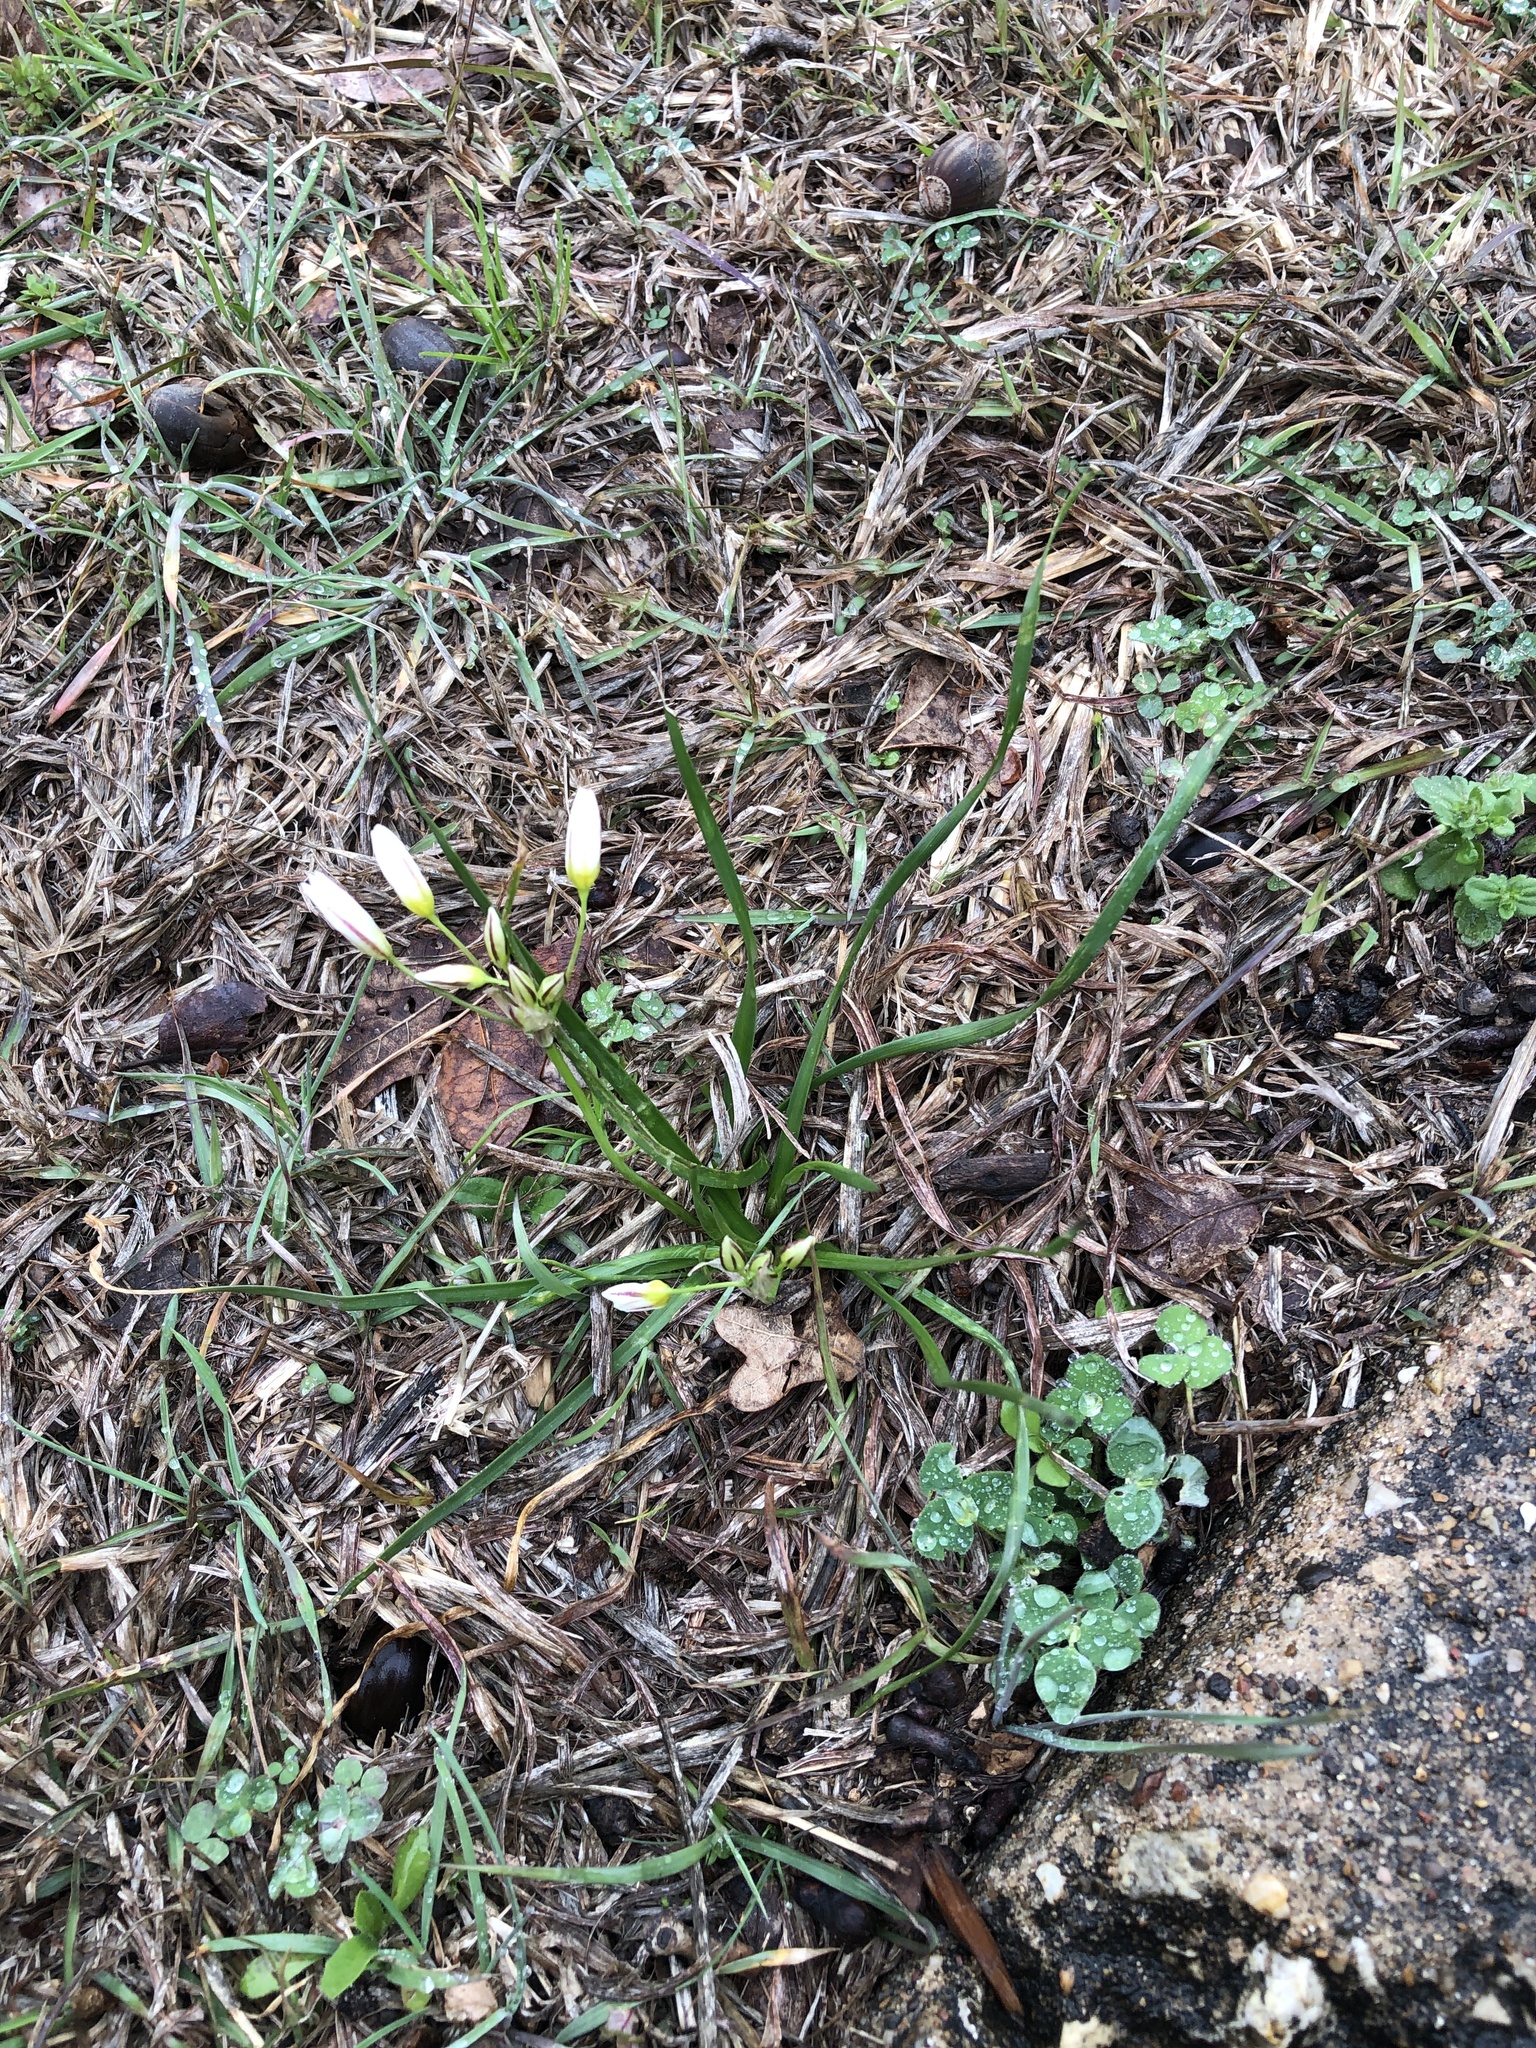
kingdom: Plantae
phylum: Tracheophyta
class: Liliopsida
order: Asparagales
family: Amaryllidaceae
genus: Nothoscordum
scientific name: Nothoscordum bivalve
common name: Crow-poison
